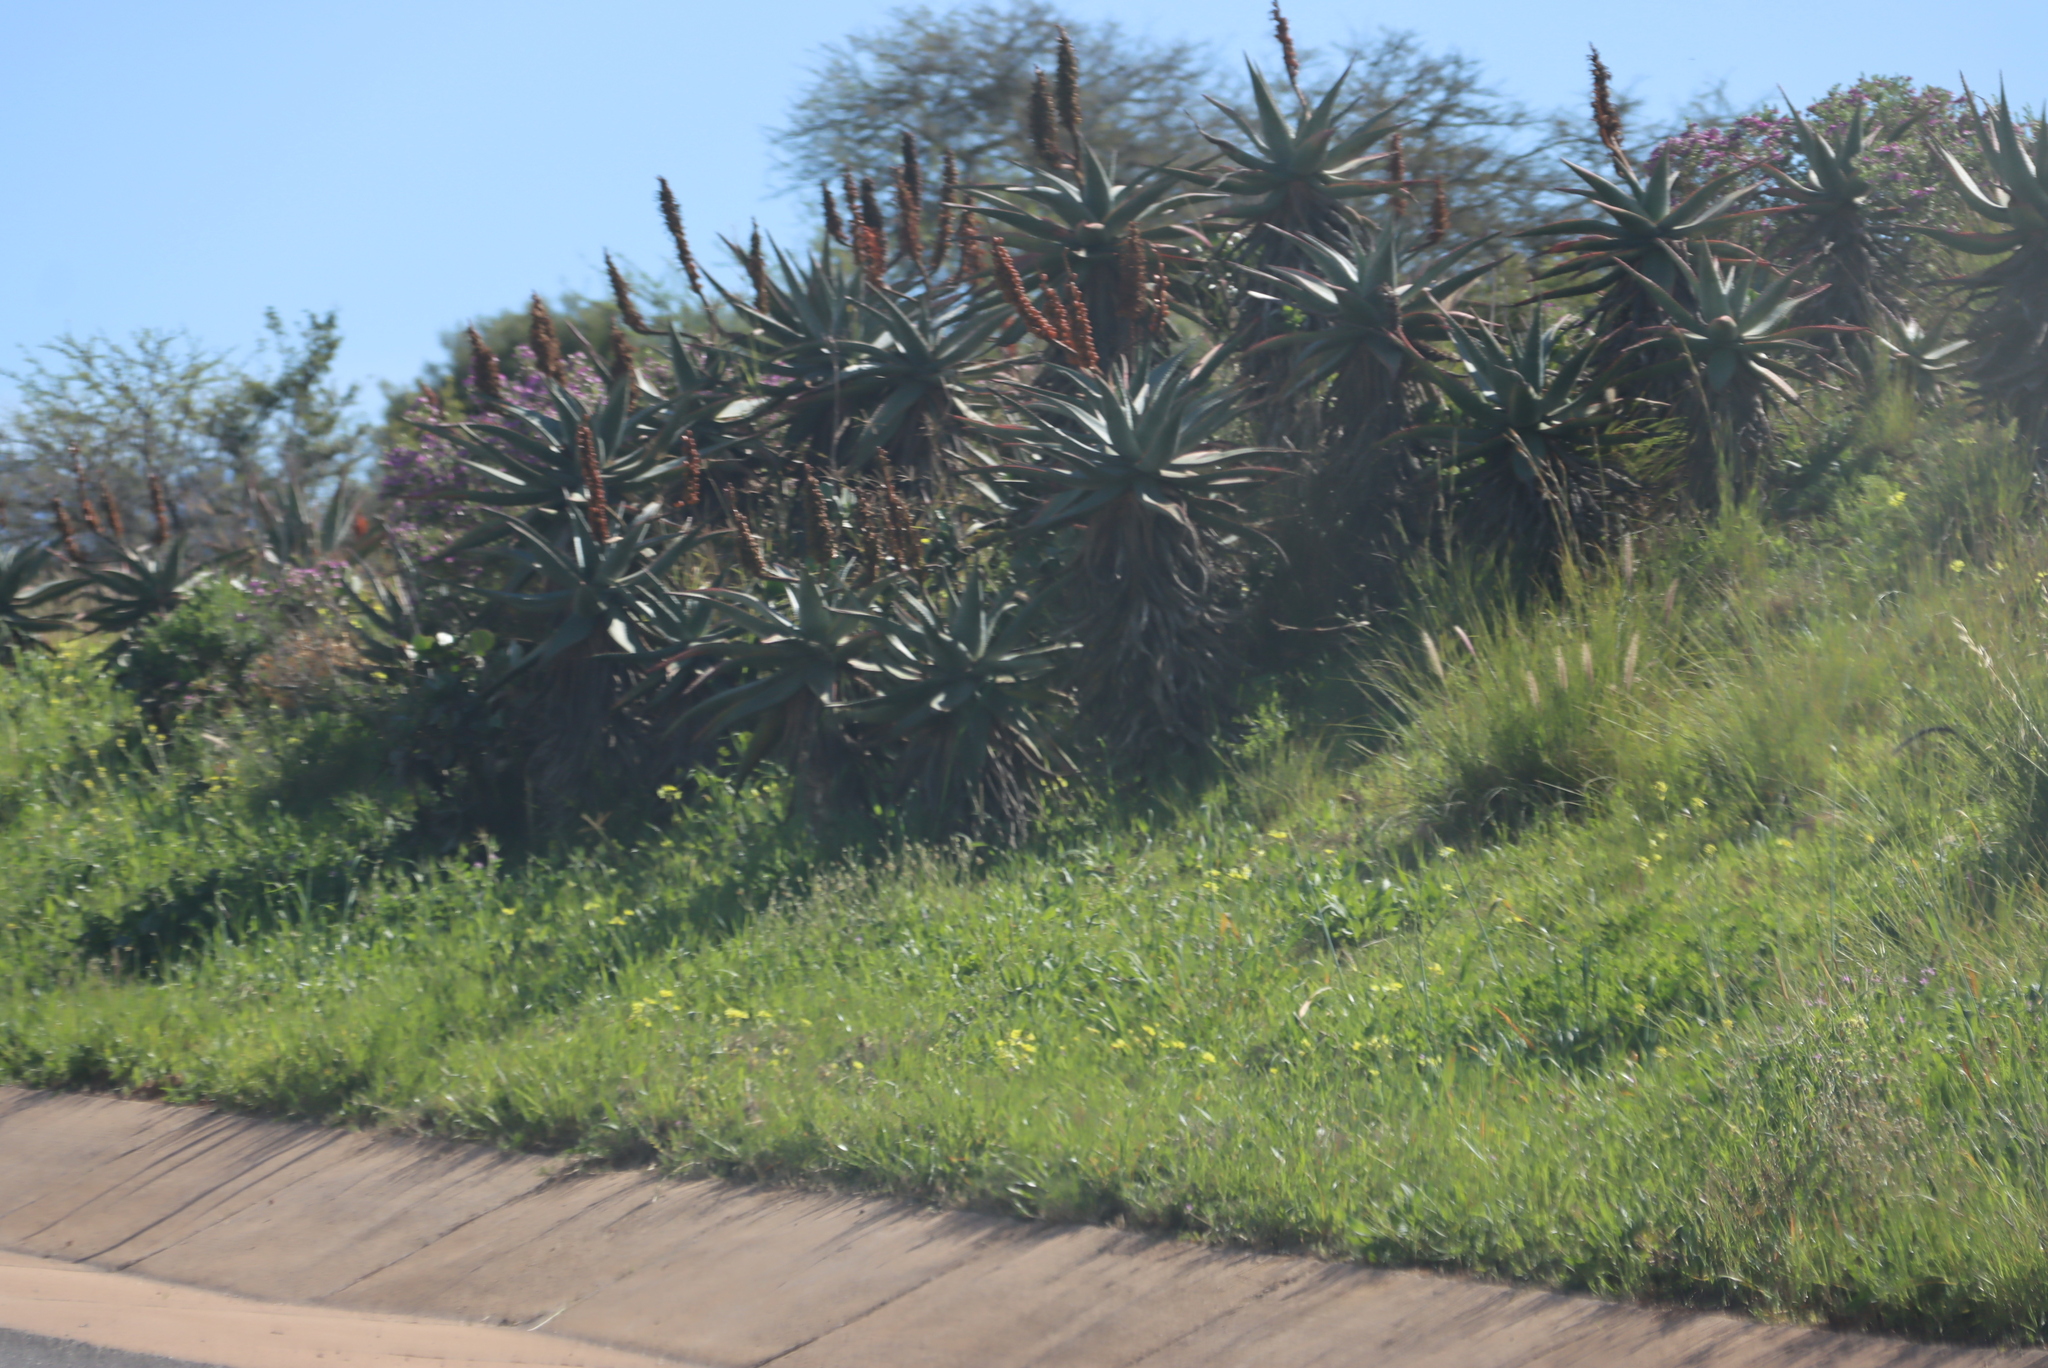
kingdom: Plantae
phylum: Tracheophyta
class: Liliopsida
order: Poales
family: Poaceae
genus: Cenchrus
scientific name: Cenchrus setaceus
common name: Crimson fountaingrass
